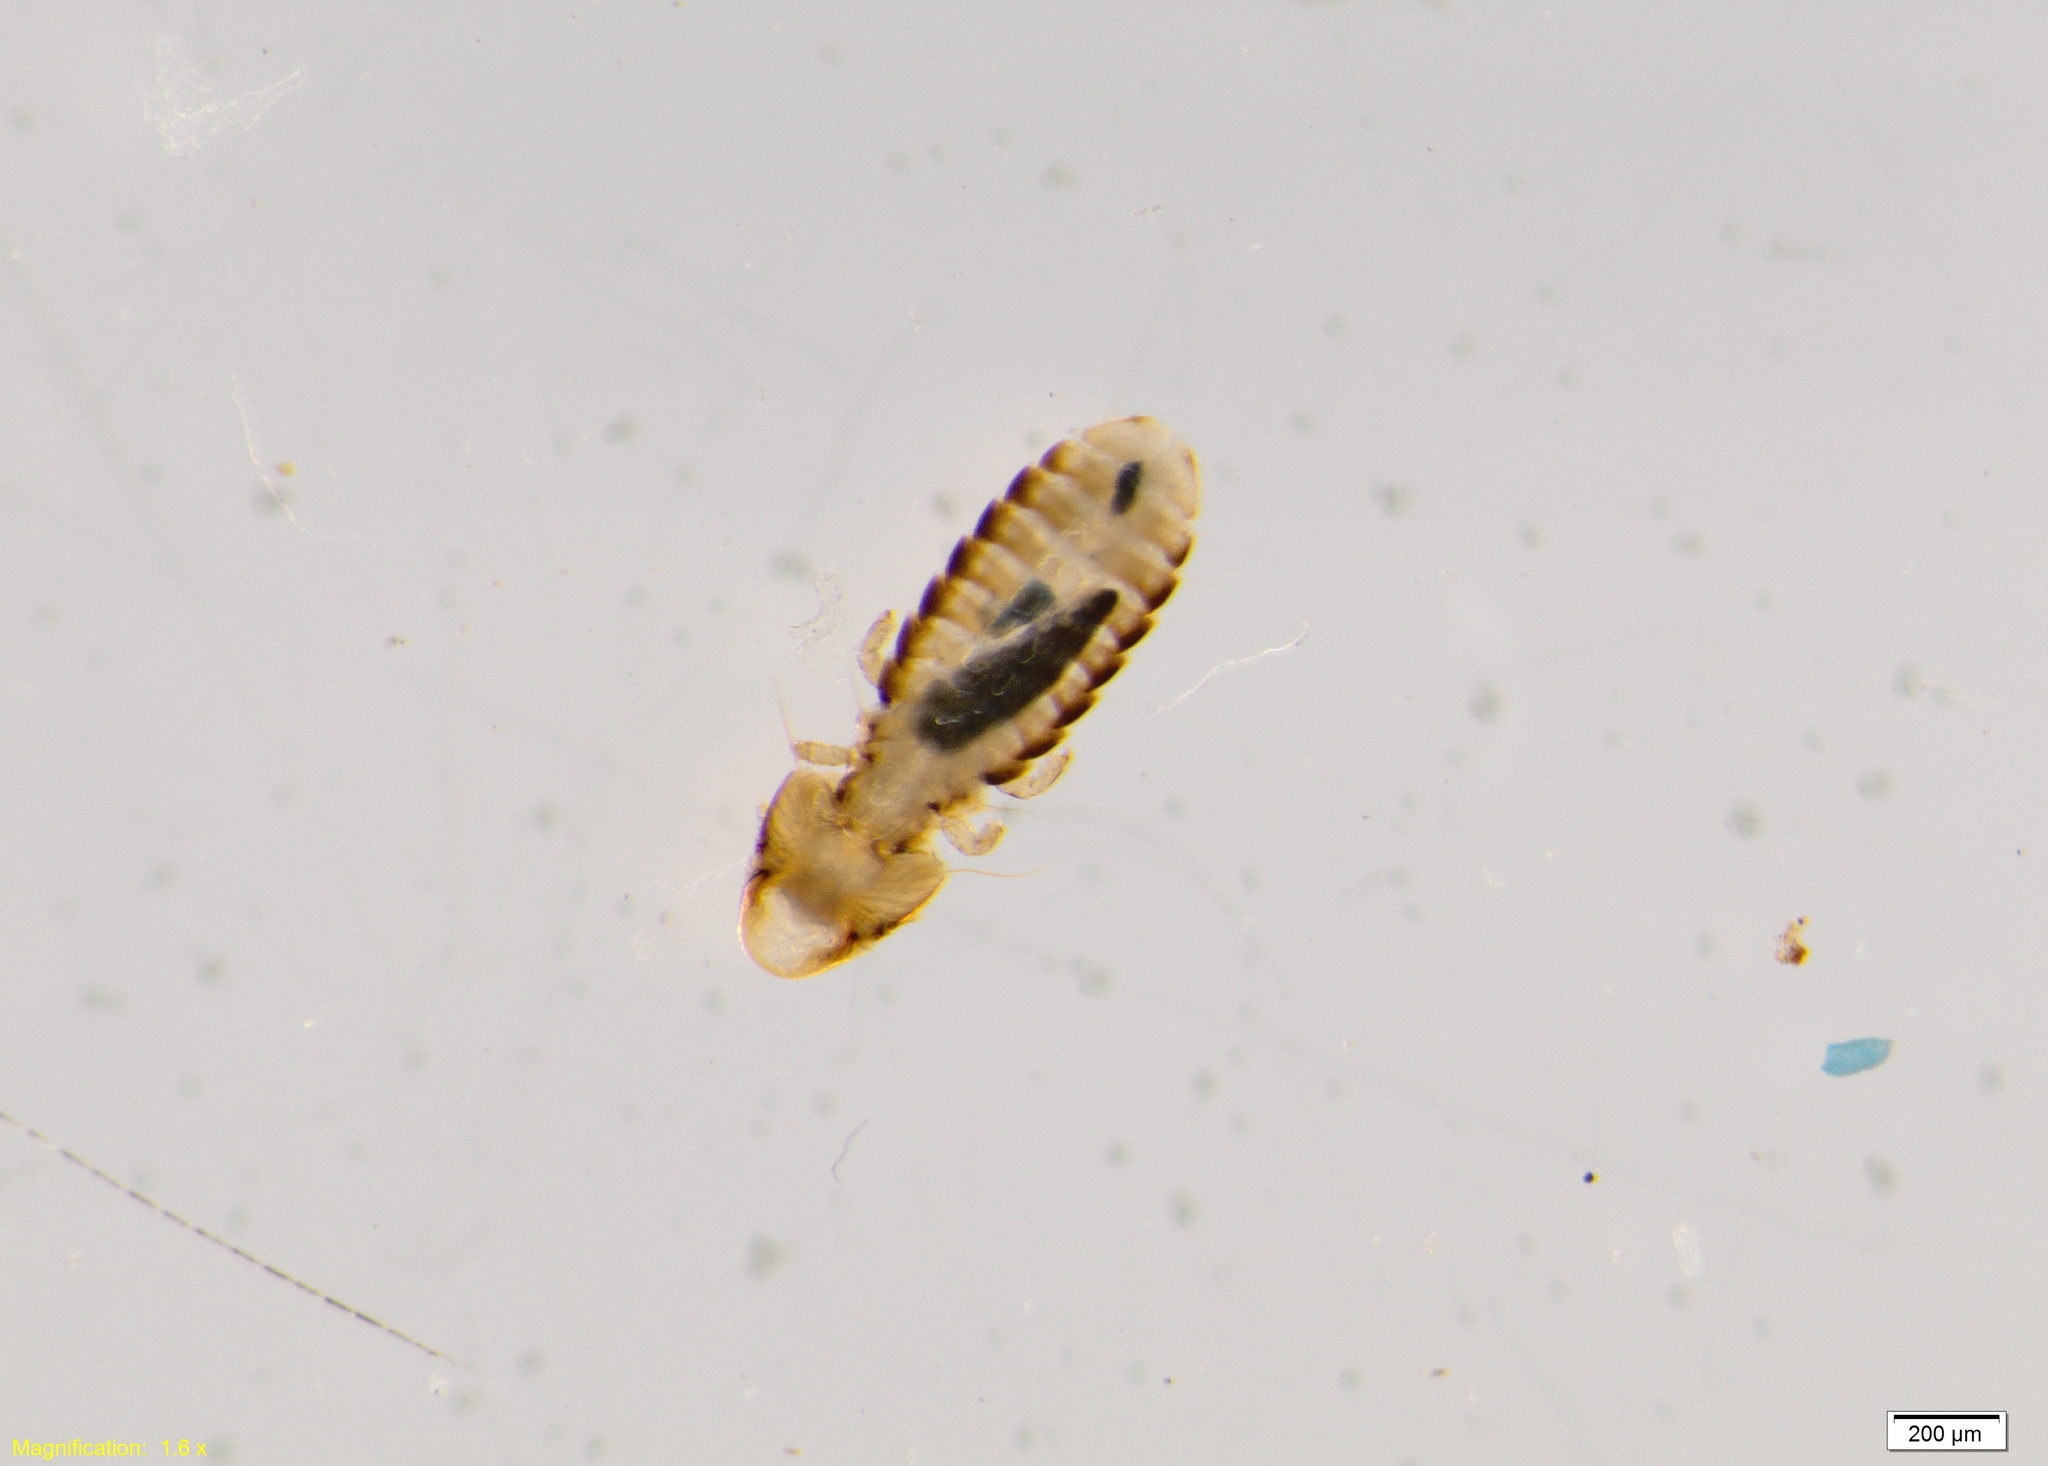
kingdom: Animalia
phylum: Arthropoda
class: Insecta
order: Psocodea
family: Philopteridae
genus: Rallicola
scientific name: Rallicola fulicae
